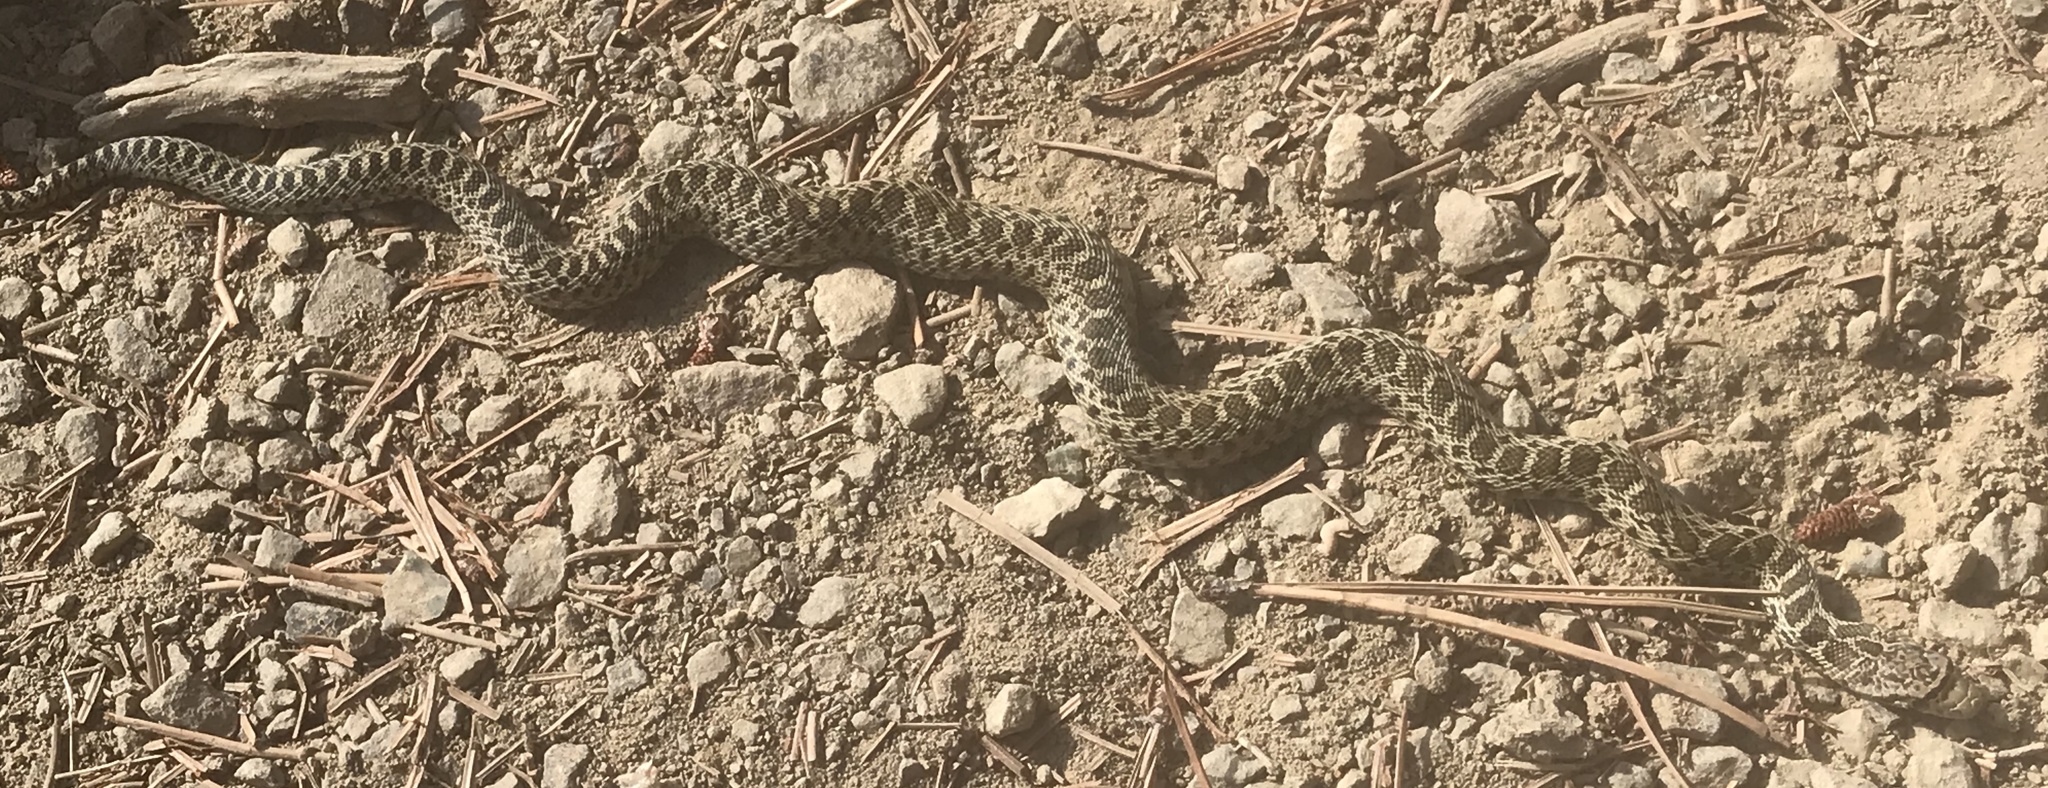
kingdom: Animalia
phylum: Chordata
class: Squamata
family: Colubridae
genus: Pituophis
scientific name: Pituophis catenifer
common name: Gopher snake
